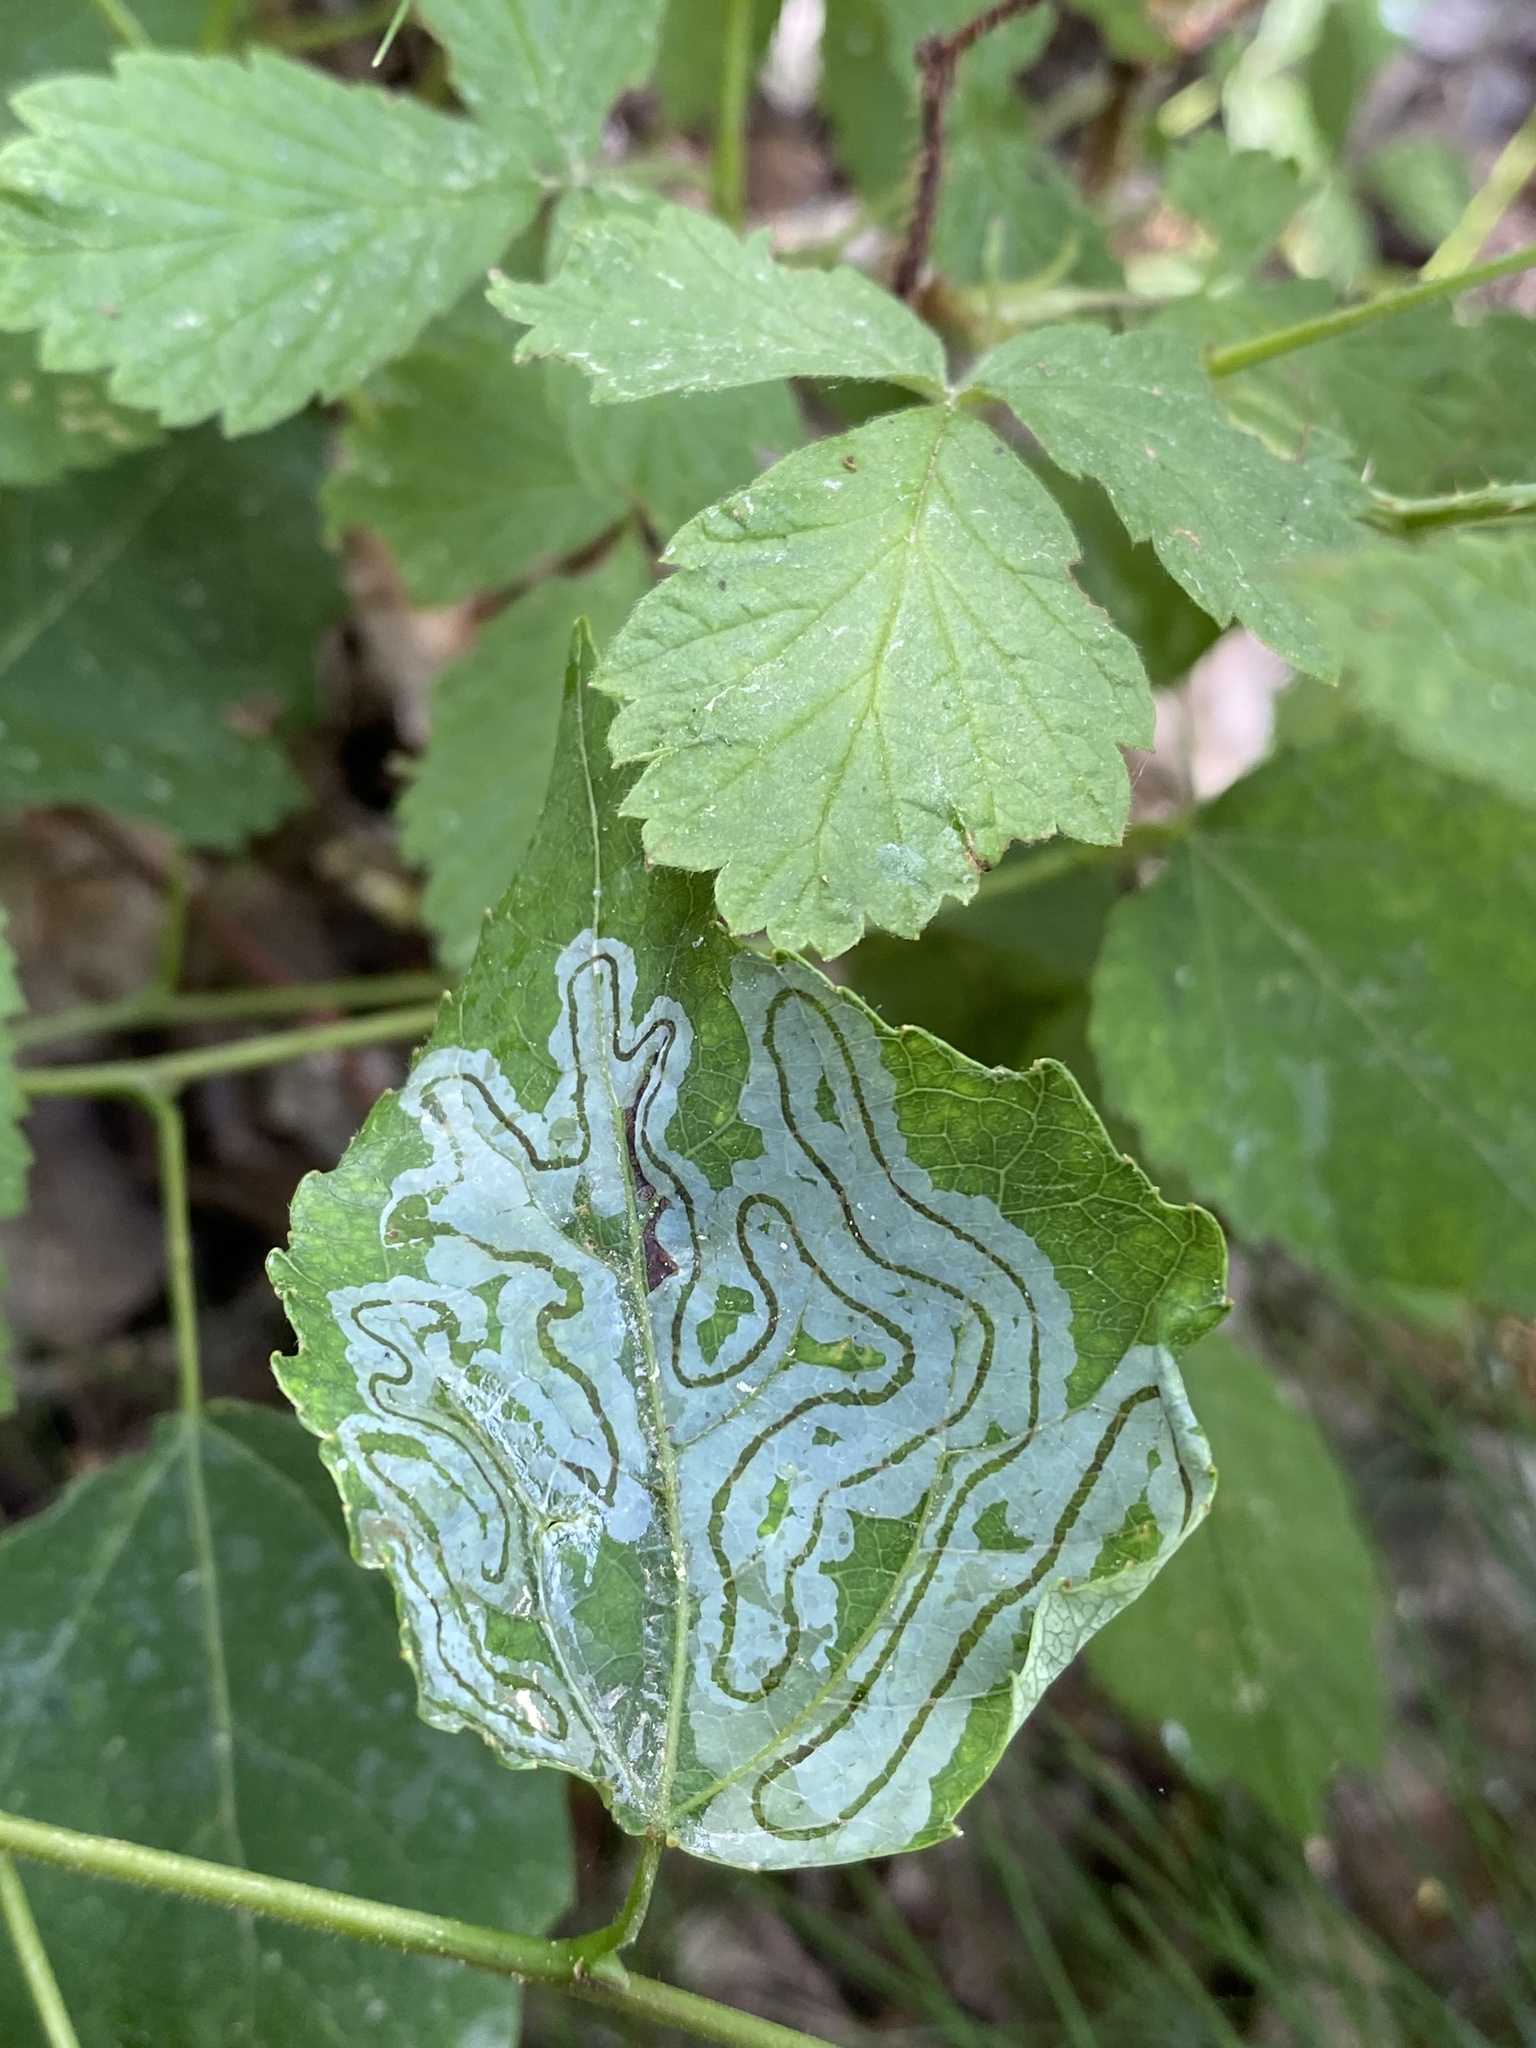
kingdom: Animalia
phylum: Arthropoda
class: Insecta
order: Lepidoptera
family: Gracillariidae
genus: Phyllocnistis
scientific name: Phyllocnistis labyrinthella
